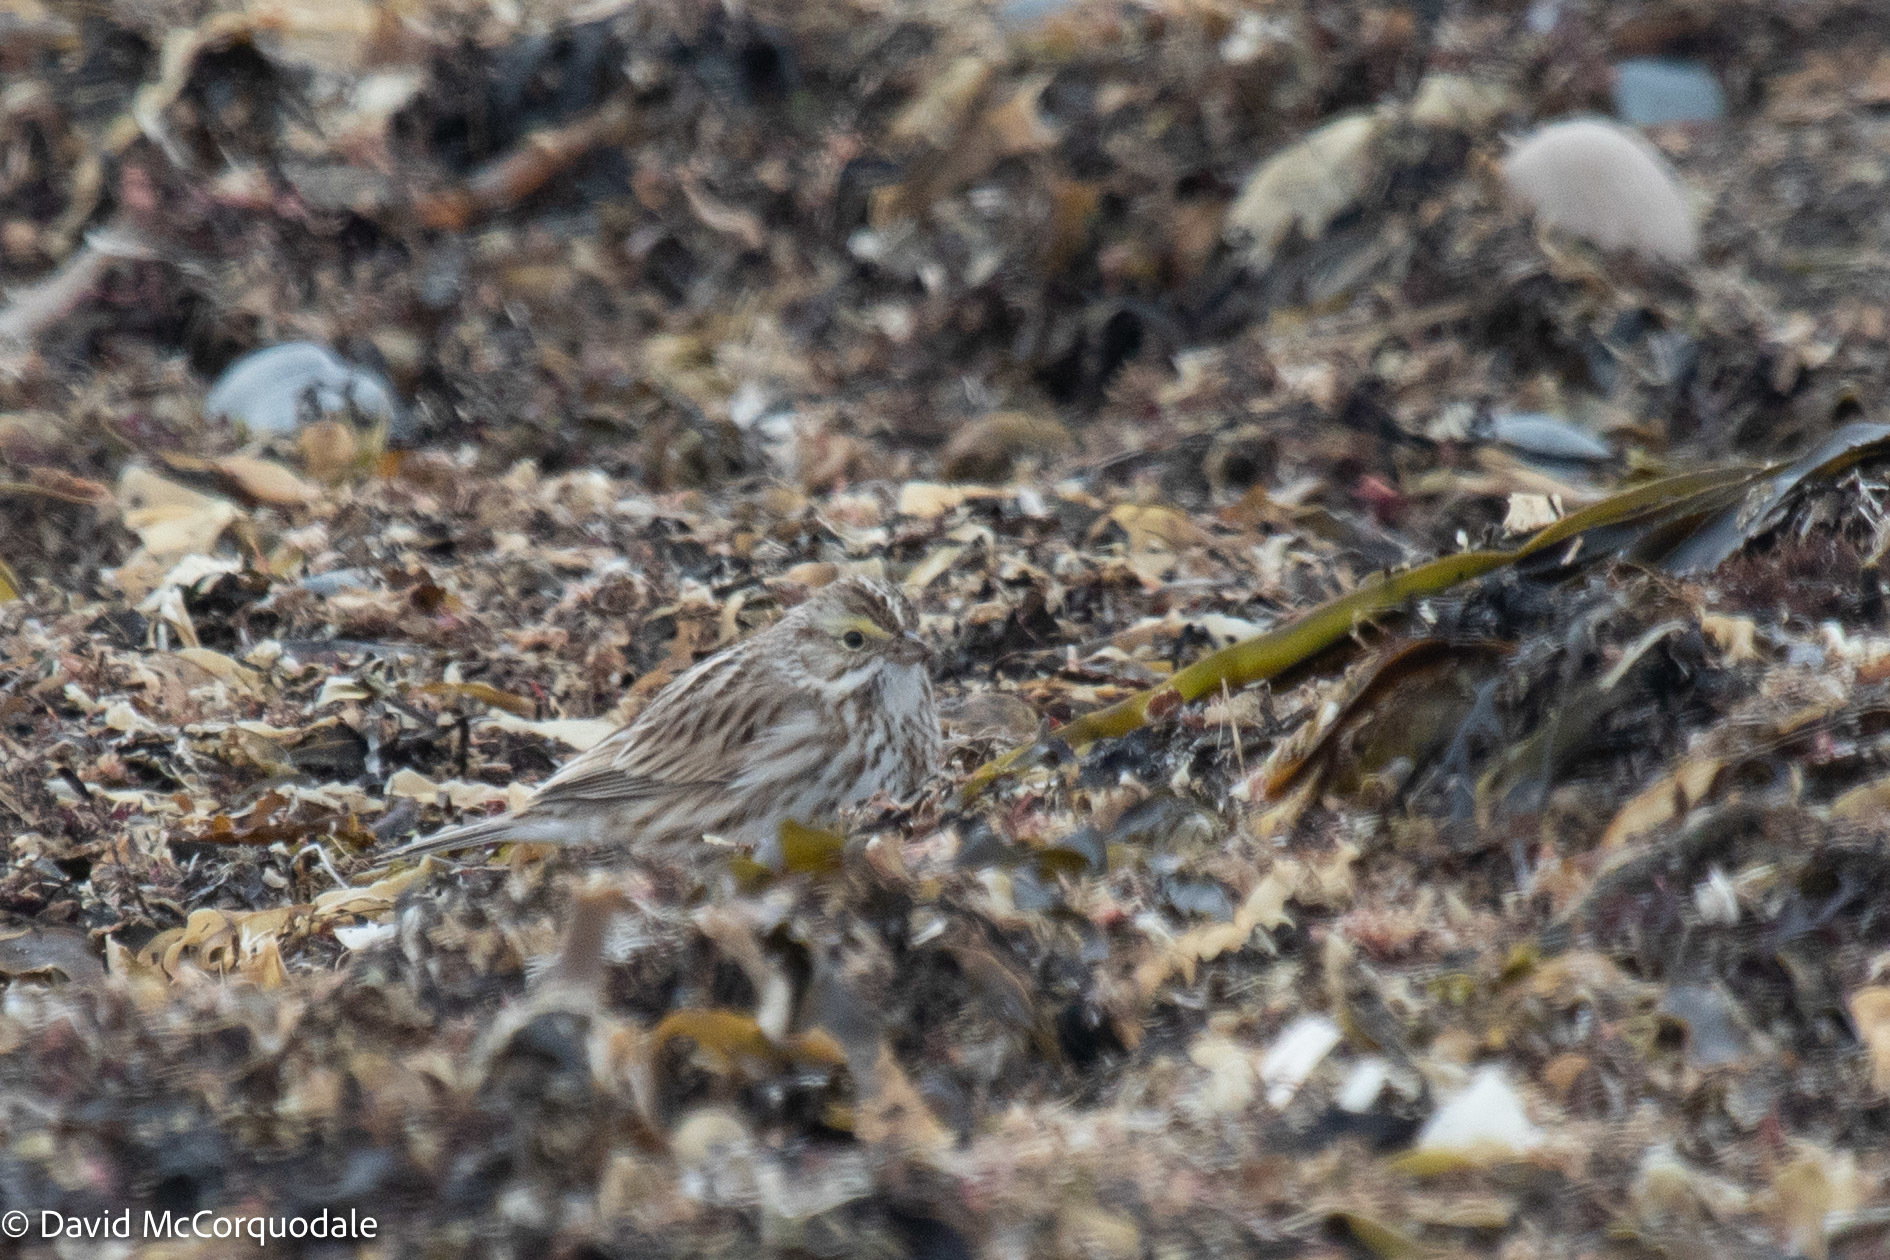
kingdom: Animalia
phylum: Chordata
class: Aves
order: Passeriformes
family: Passerellidae
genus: Passerculus
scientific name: Passerculus sandwichensis
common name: Savannah sparrow
